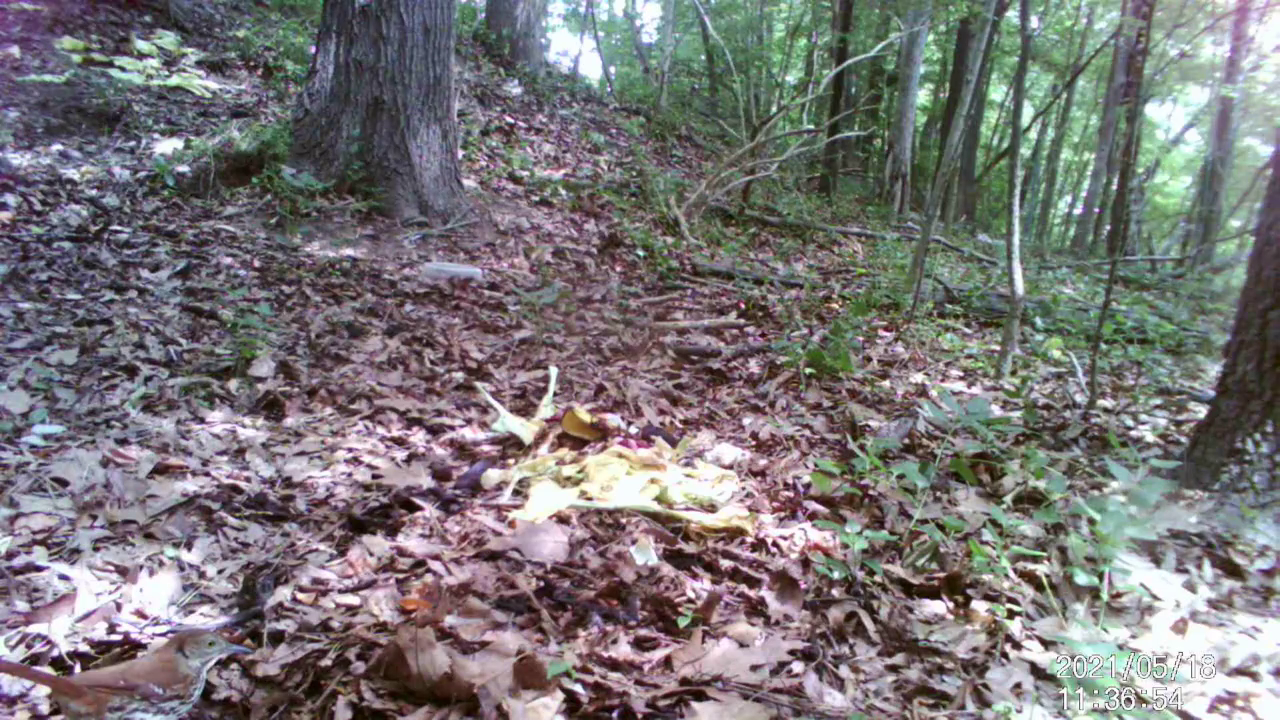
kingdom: Animalia
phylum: Chordata
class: Aves
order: Passeriformes
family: Mimidae
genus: Toxostoma
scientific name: Toxostoma rufum
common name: Brown thrasher
